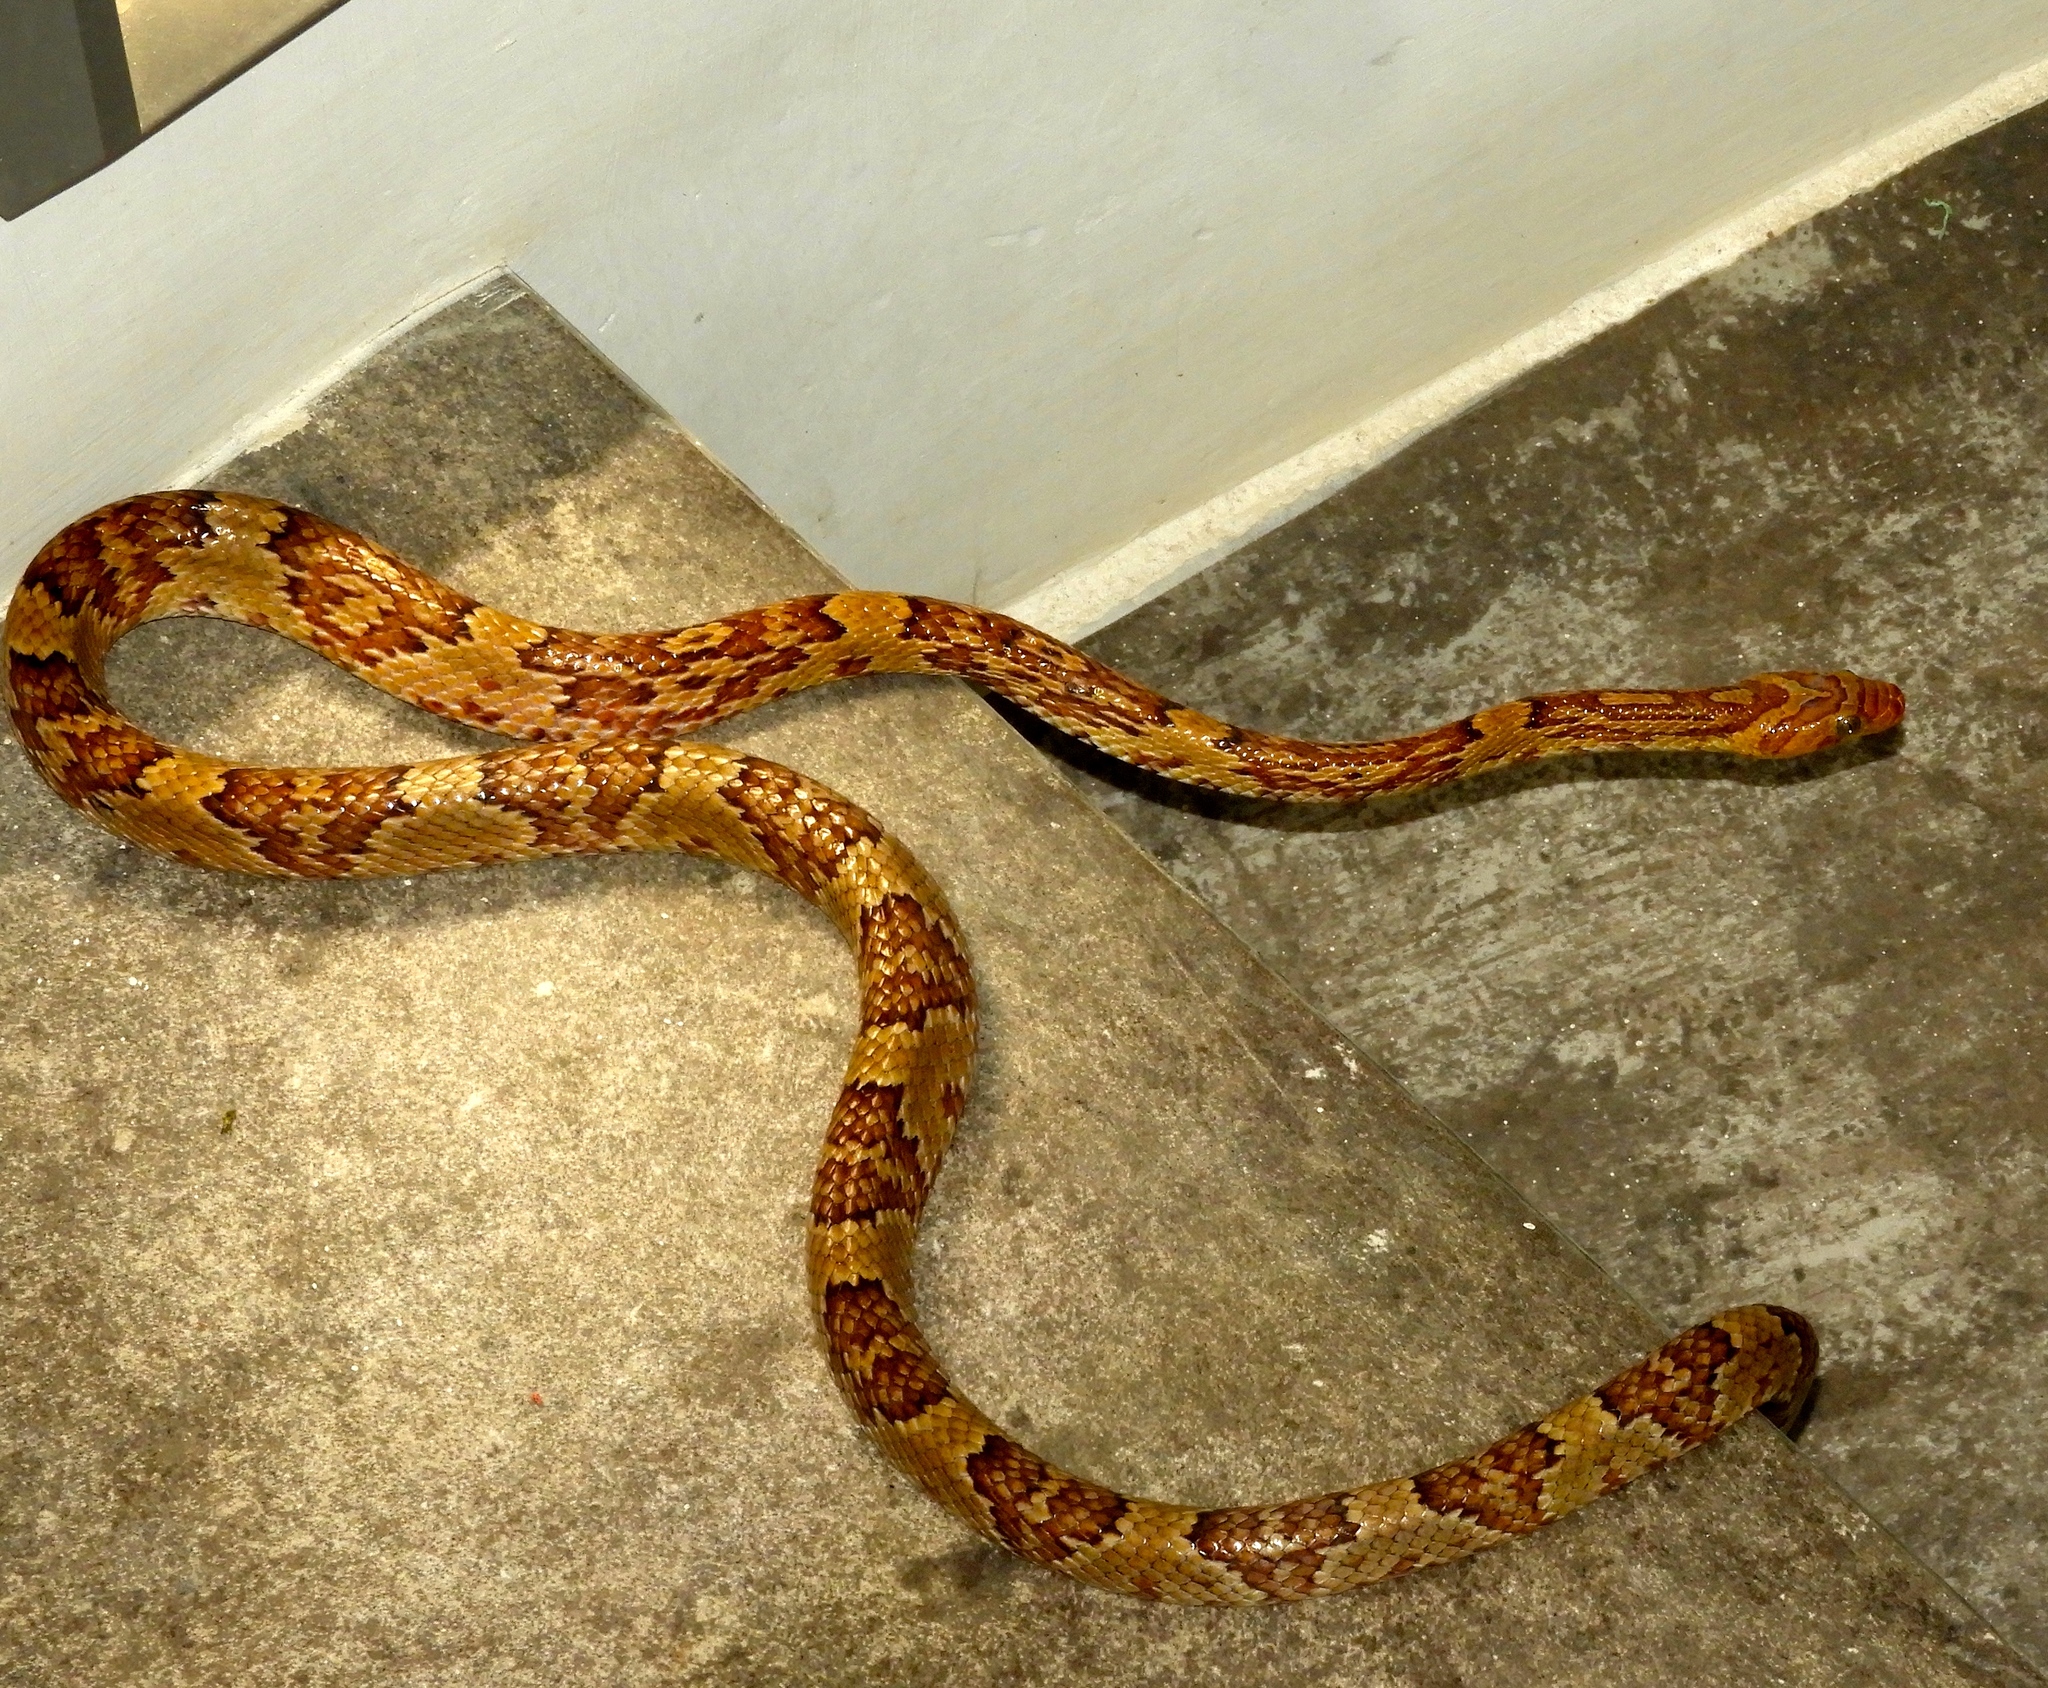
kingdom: Animalia
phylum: Chordata
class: Squamata
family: Colubridae
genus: Trimorphodon
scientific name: Trimorphodon paucimaculatus
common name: Sinaloan lyresnake
